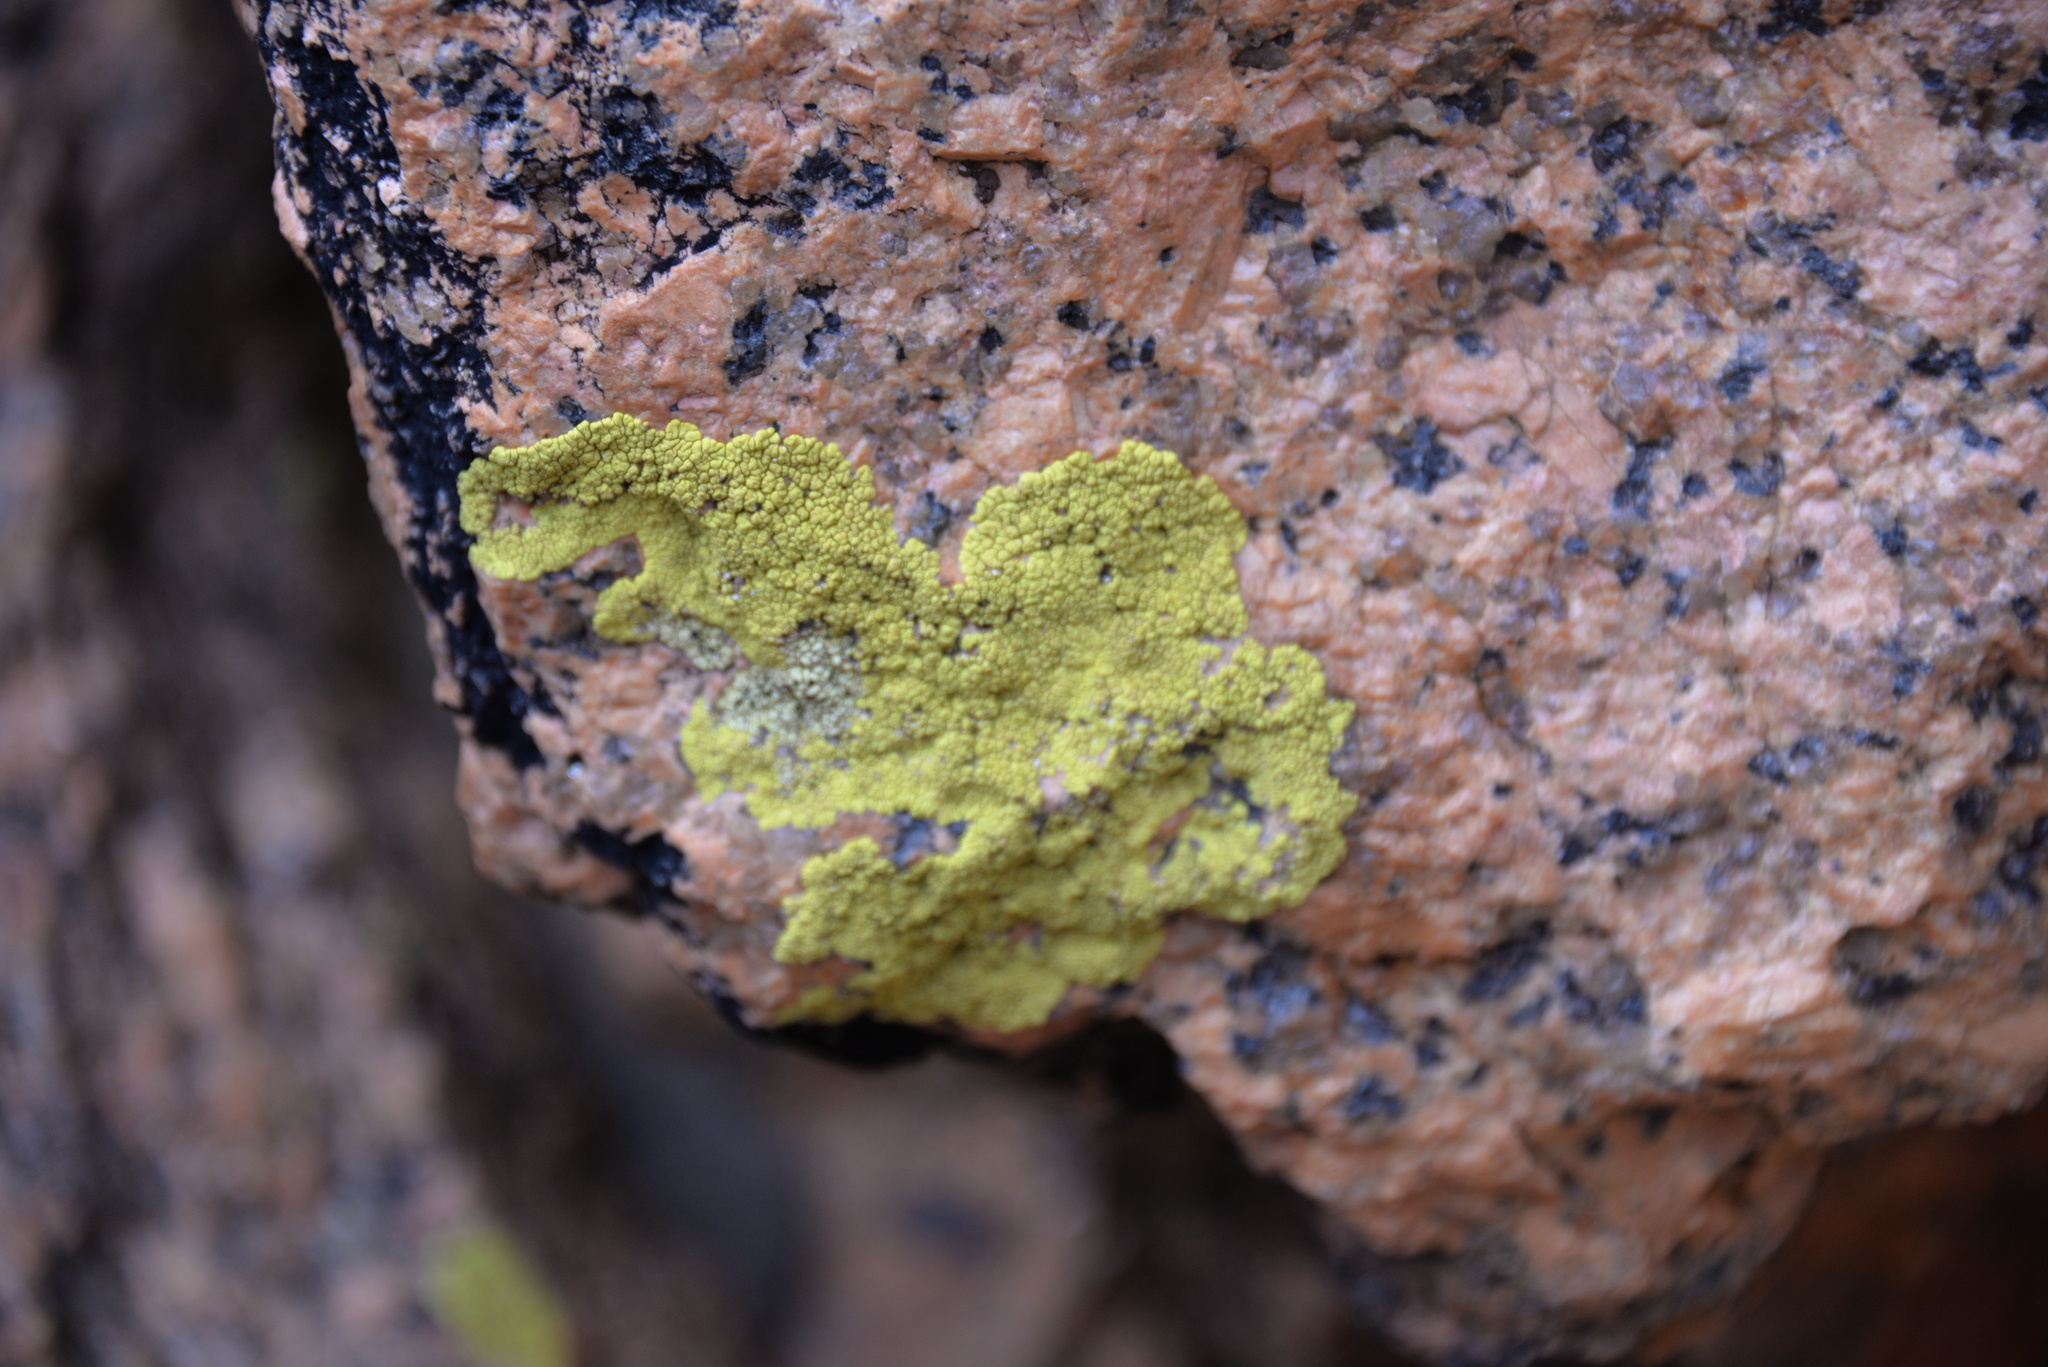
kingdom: Fungi
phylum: Ascomycota
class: Lecanoromycetes
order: Acarosporales
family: Acarosporaceae
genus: Pleopsidium
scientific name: Pleopsidium oxytonum
